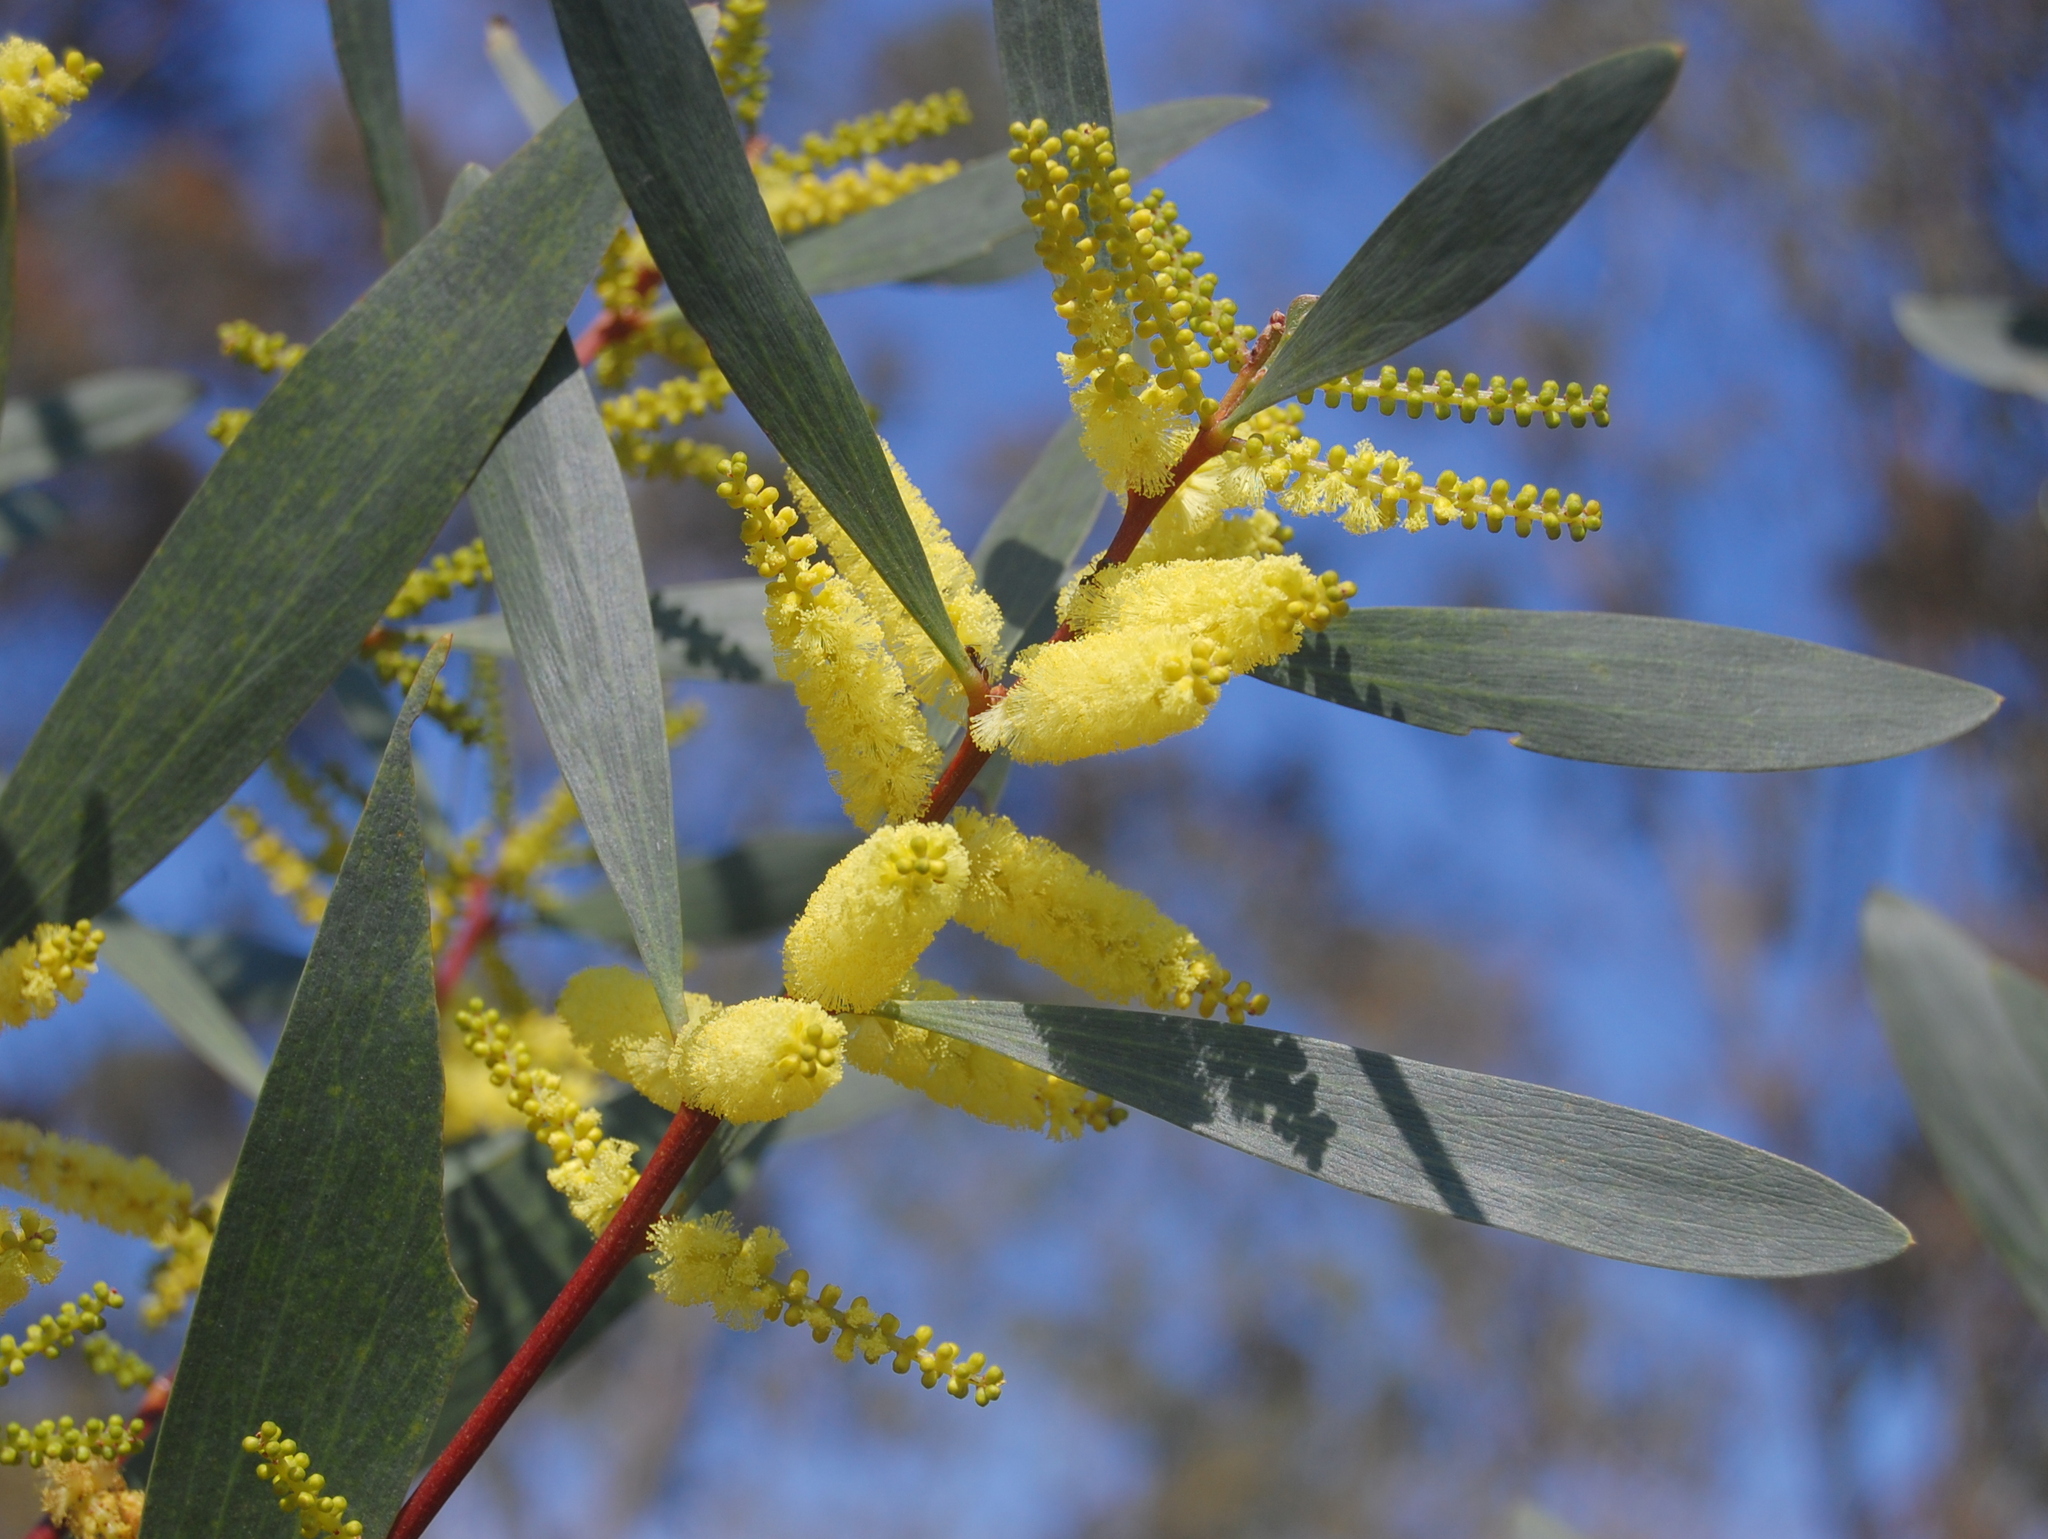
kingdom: Plantae
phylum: Tracheophyta
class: Magnoliopsida
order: Fabales
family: Fabaceae
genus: Acacia
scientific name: Acacia longifolia
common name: Sydney golden wattle
